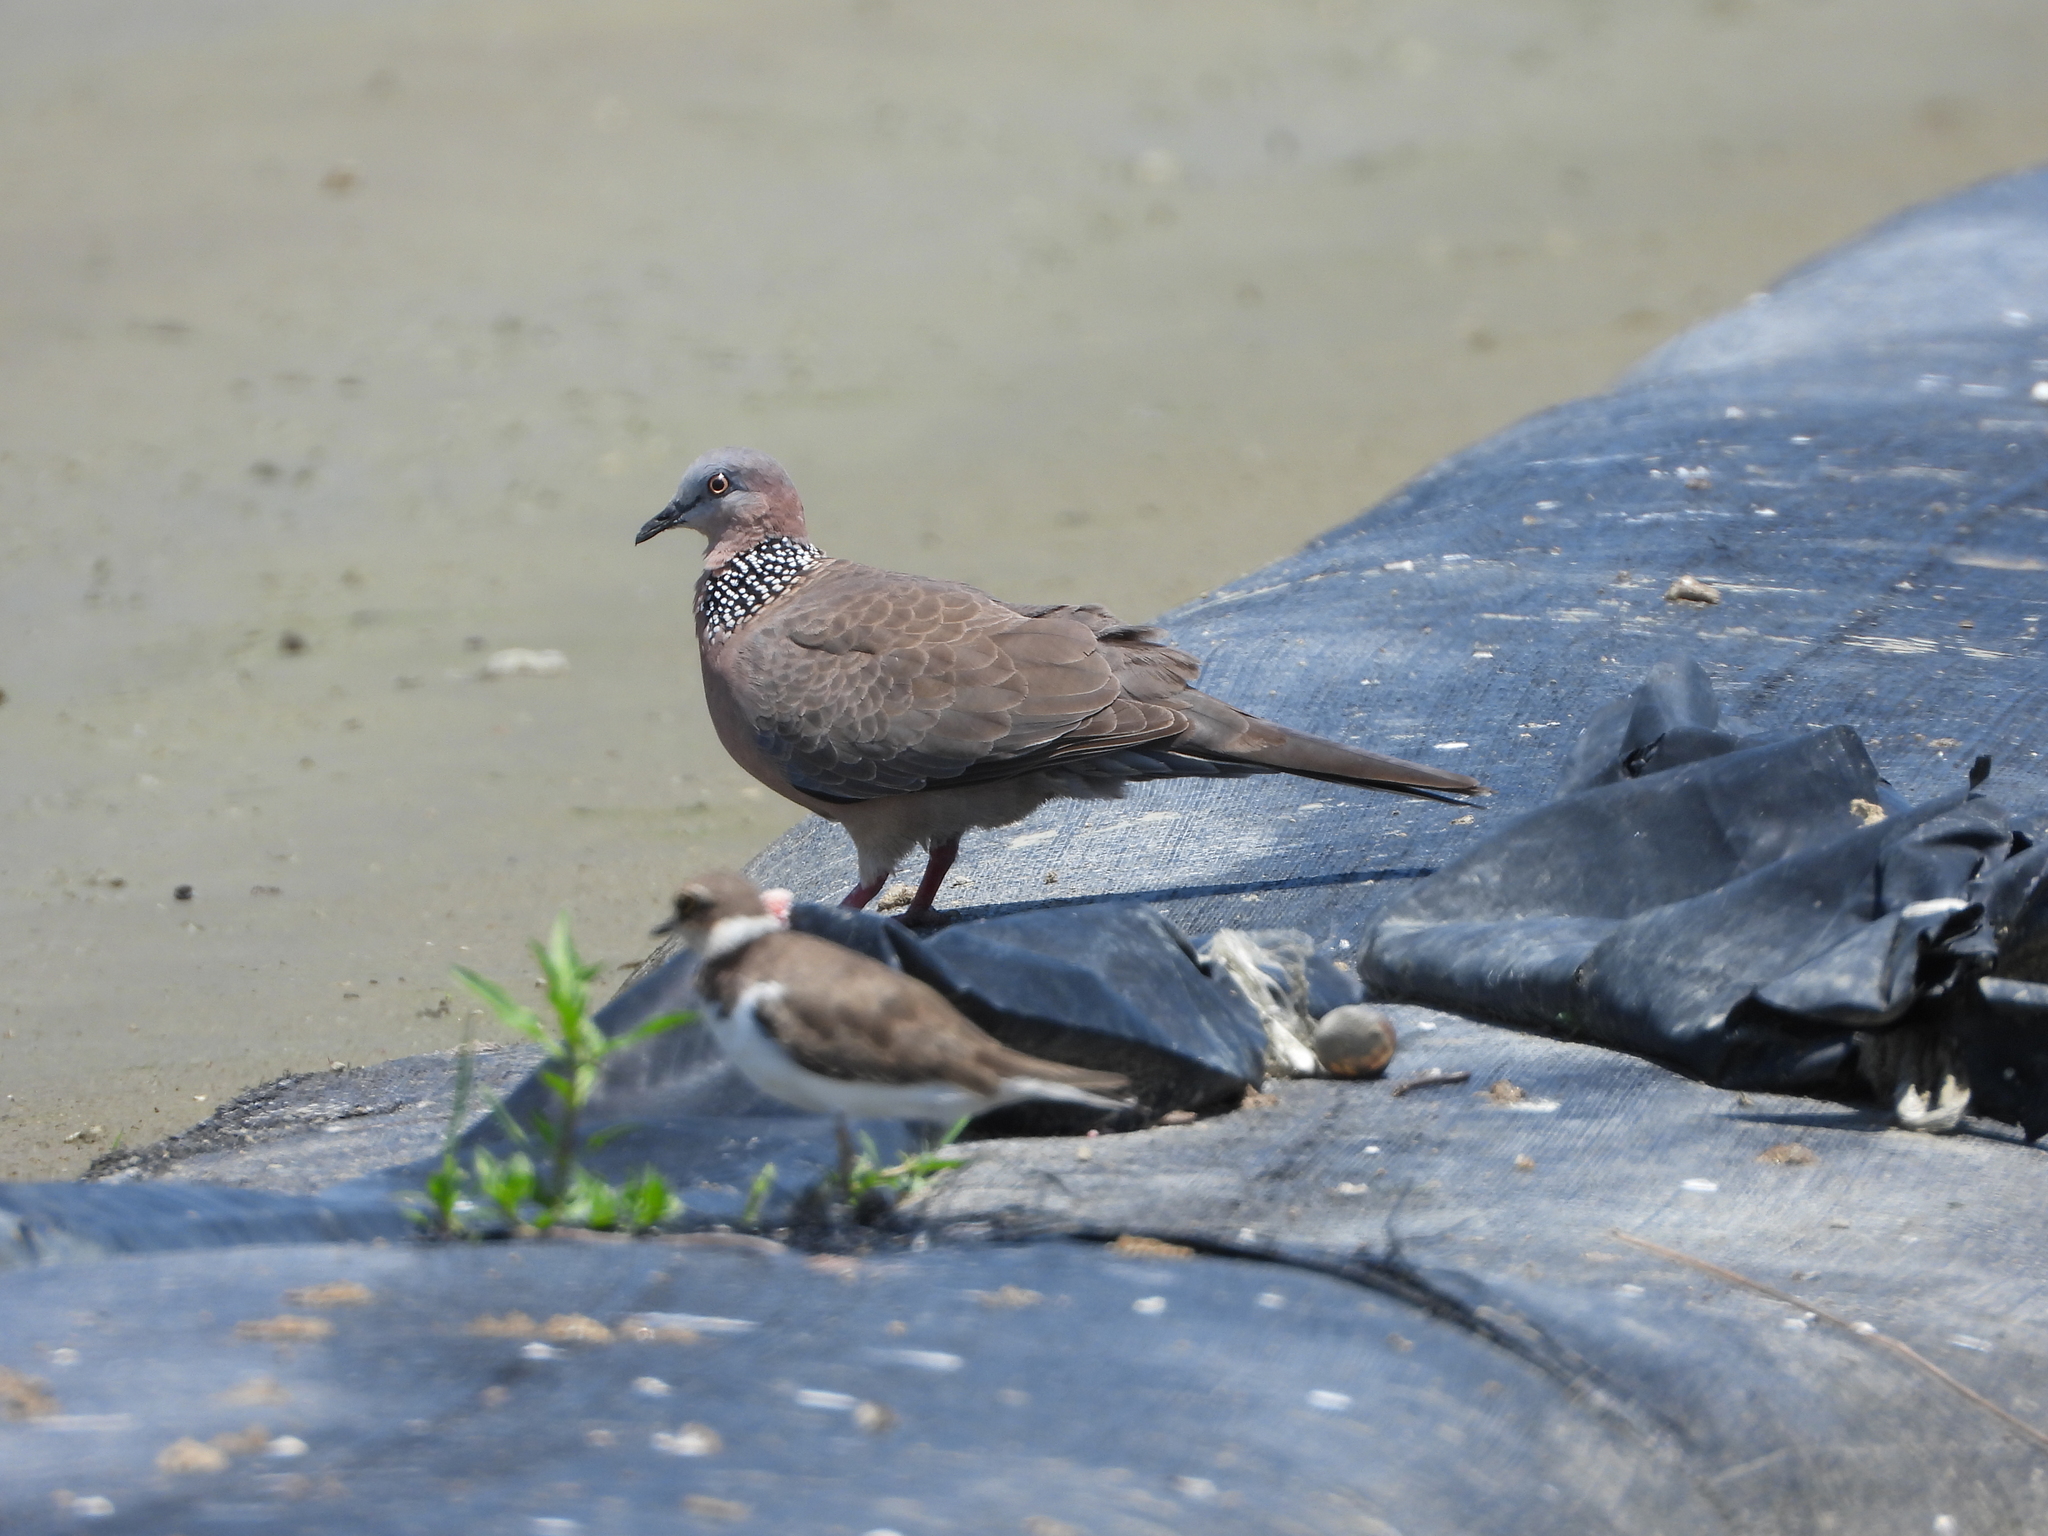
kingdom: Animalia
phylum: Chordata
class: Aves
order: Columbiformes
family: Columbidae
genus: Spilopelia
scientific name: Spilopelia chinensis
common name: Spotted dove
